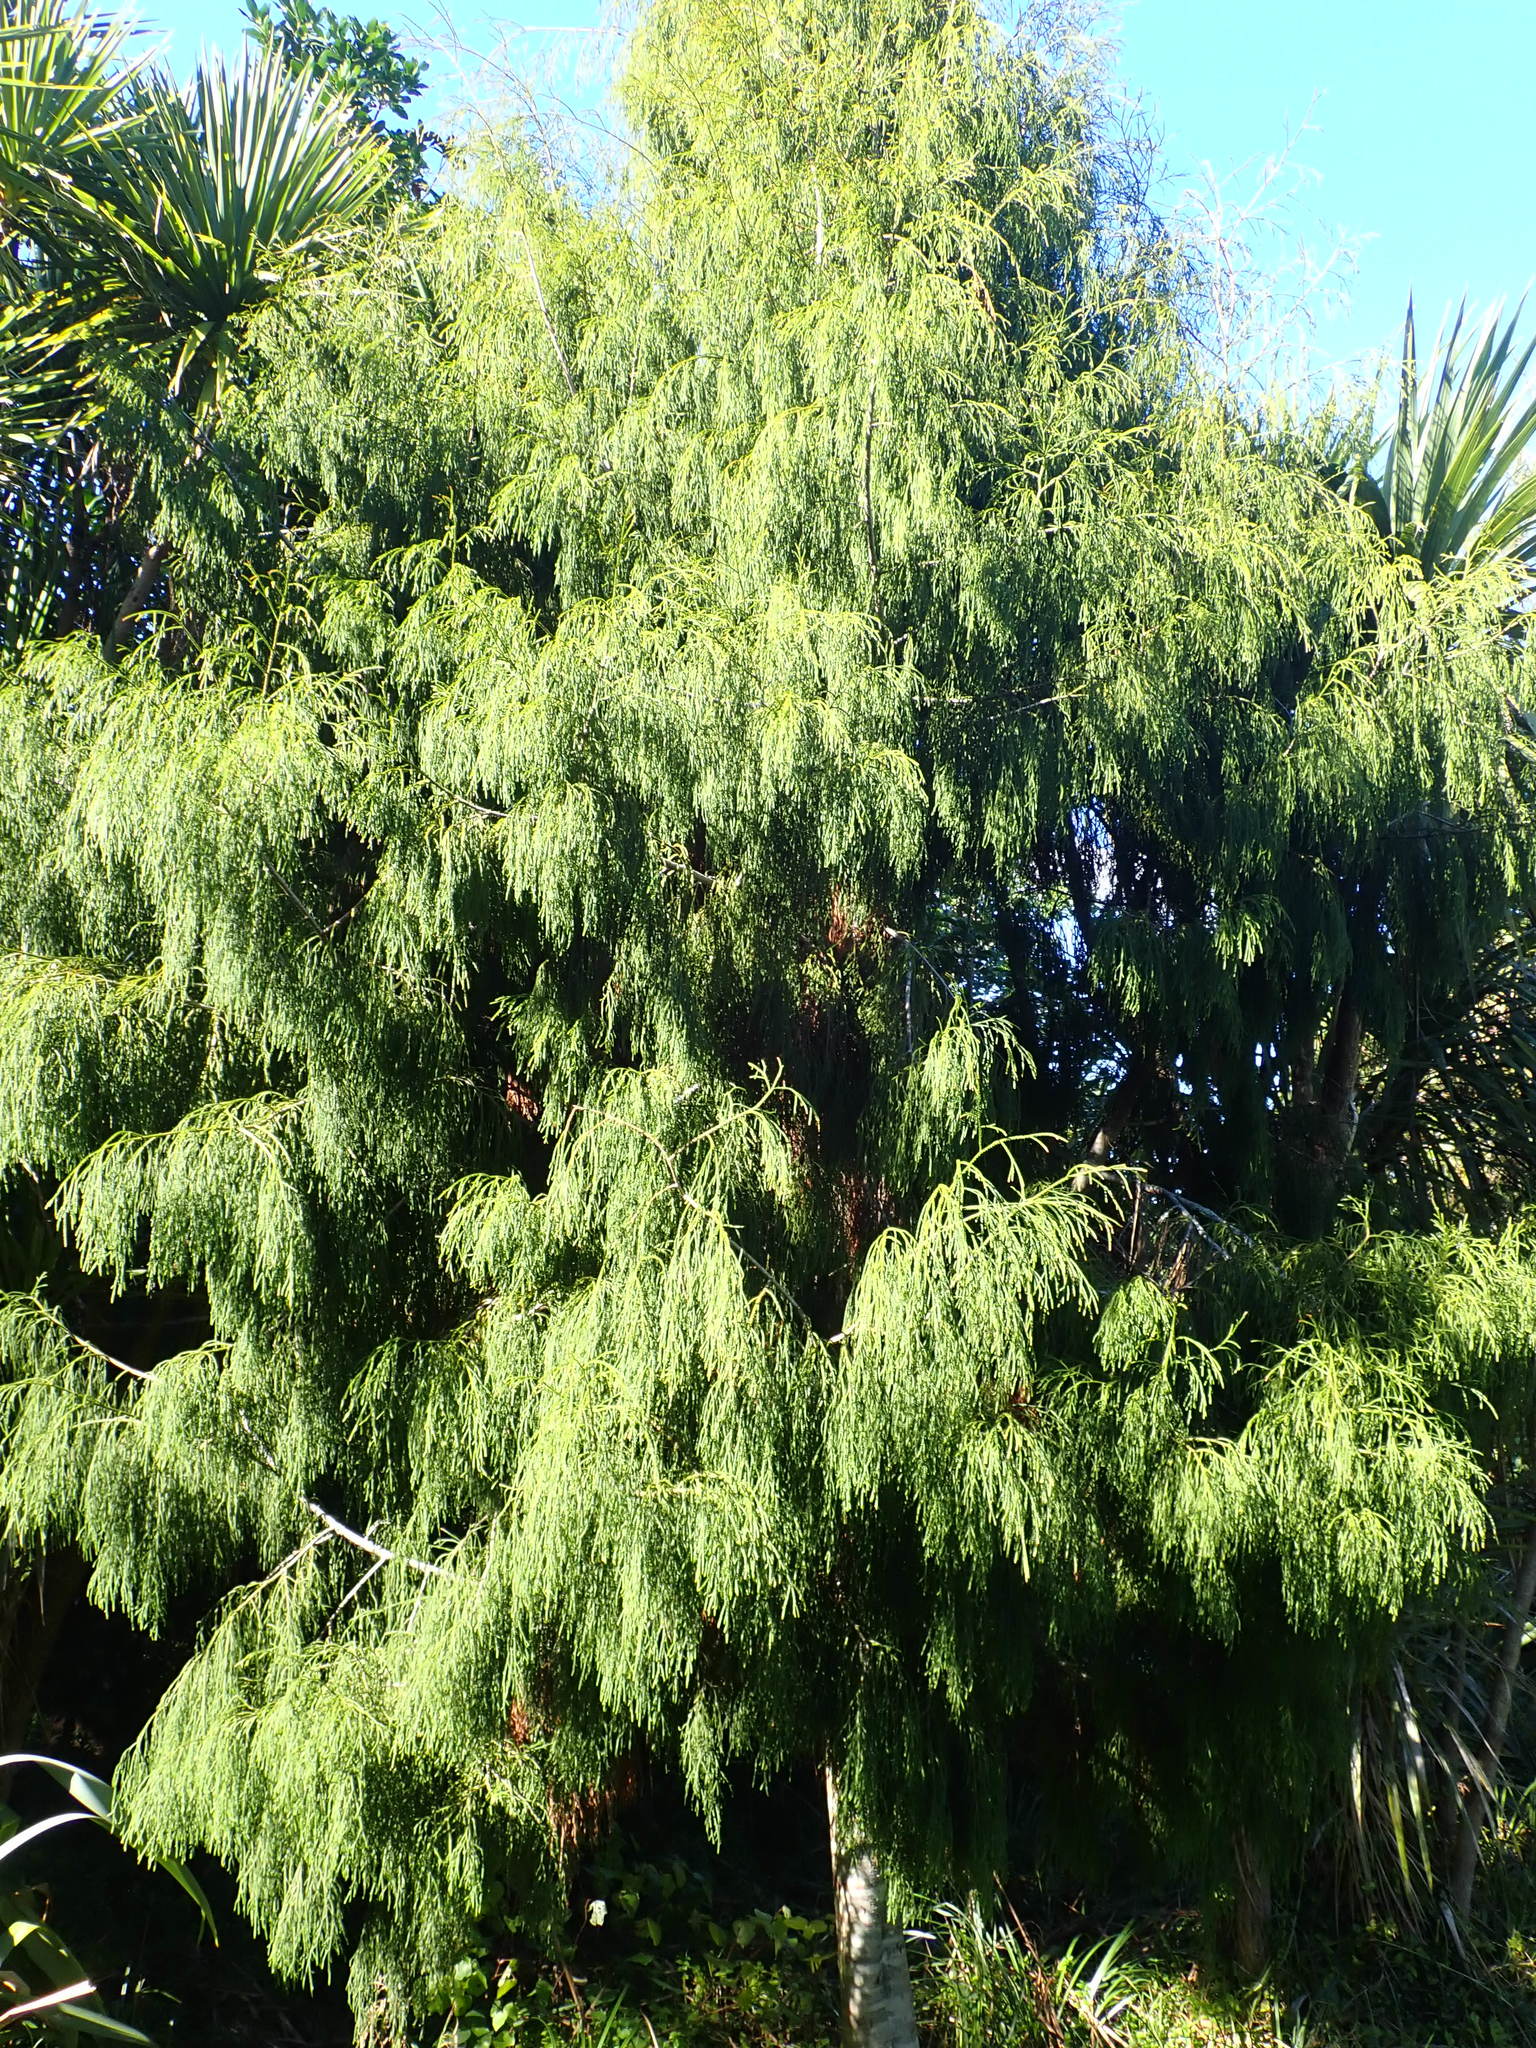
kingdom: Plantae
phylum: Tracheophyta
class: Pinopsida
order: Pinales
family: Podocarpaceae
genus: Dacrydium
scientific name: Dacrydium cupressinum
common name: Red pine
